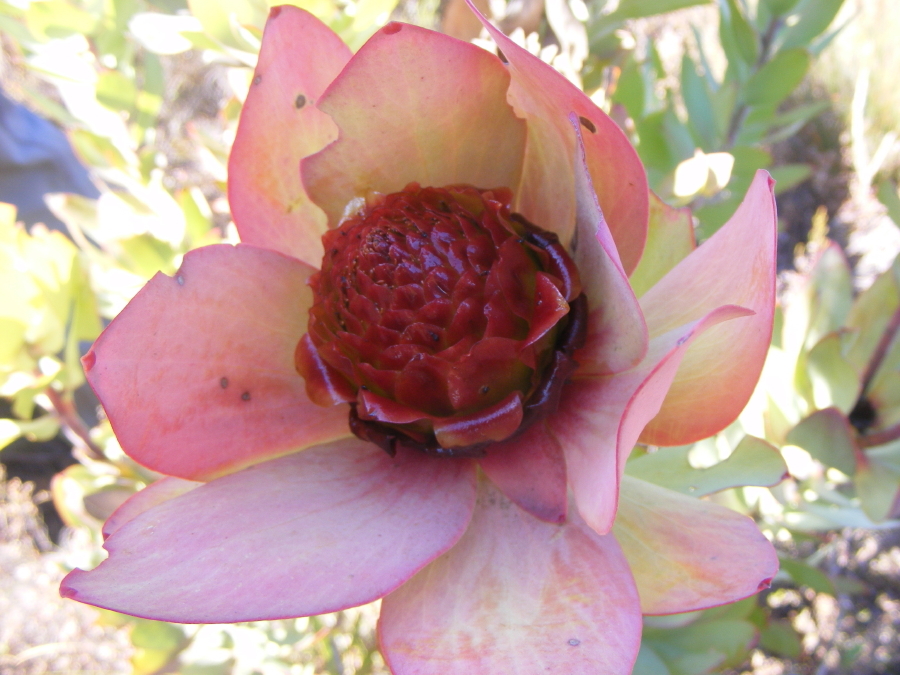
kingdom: Plantae
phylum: Tracheophyta
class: Magnoliopsida
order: Proteales
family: Proteaceae
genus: Leucadendron
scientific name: Leucadendron tinctum
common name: Spicy conebush
